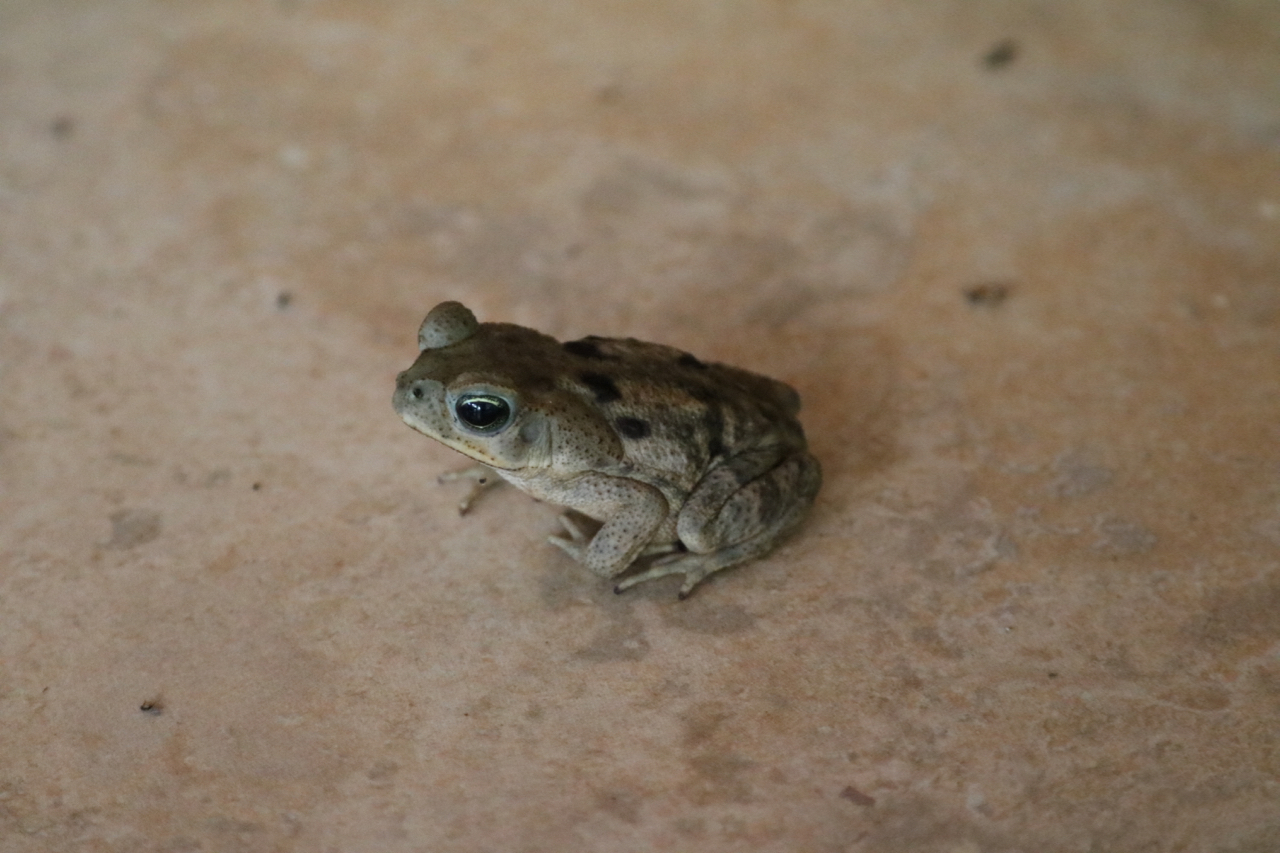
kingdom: Animalia
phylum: Chordata
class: Amphibia
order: Anura
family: Bufonidae
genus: Rhinella
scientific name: Rhinella horribilis
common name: Mesoamerican cane toad
